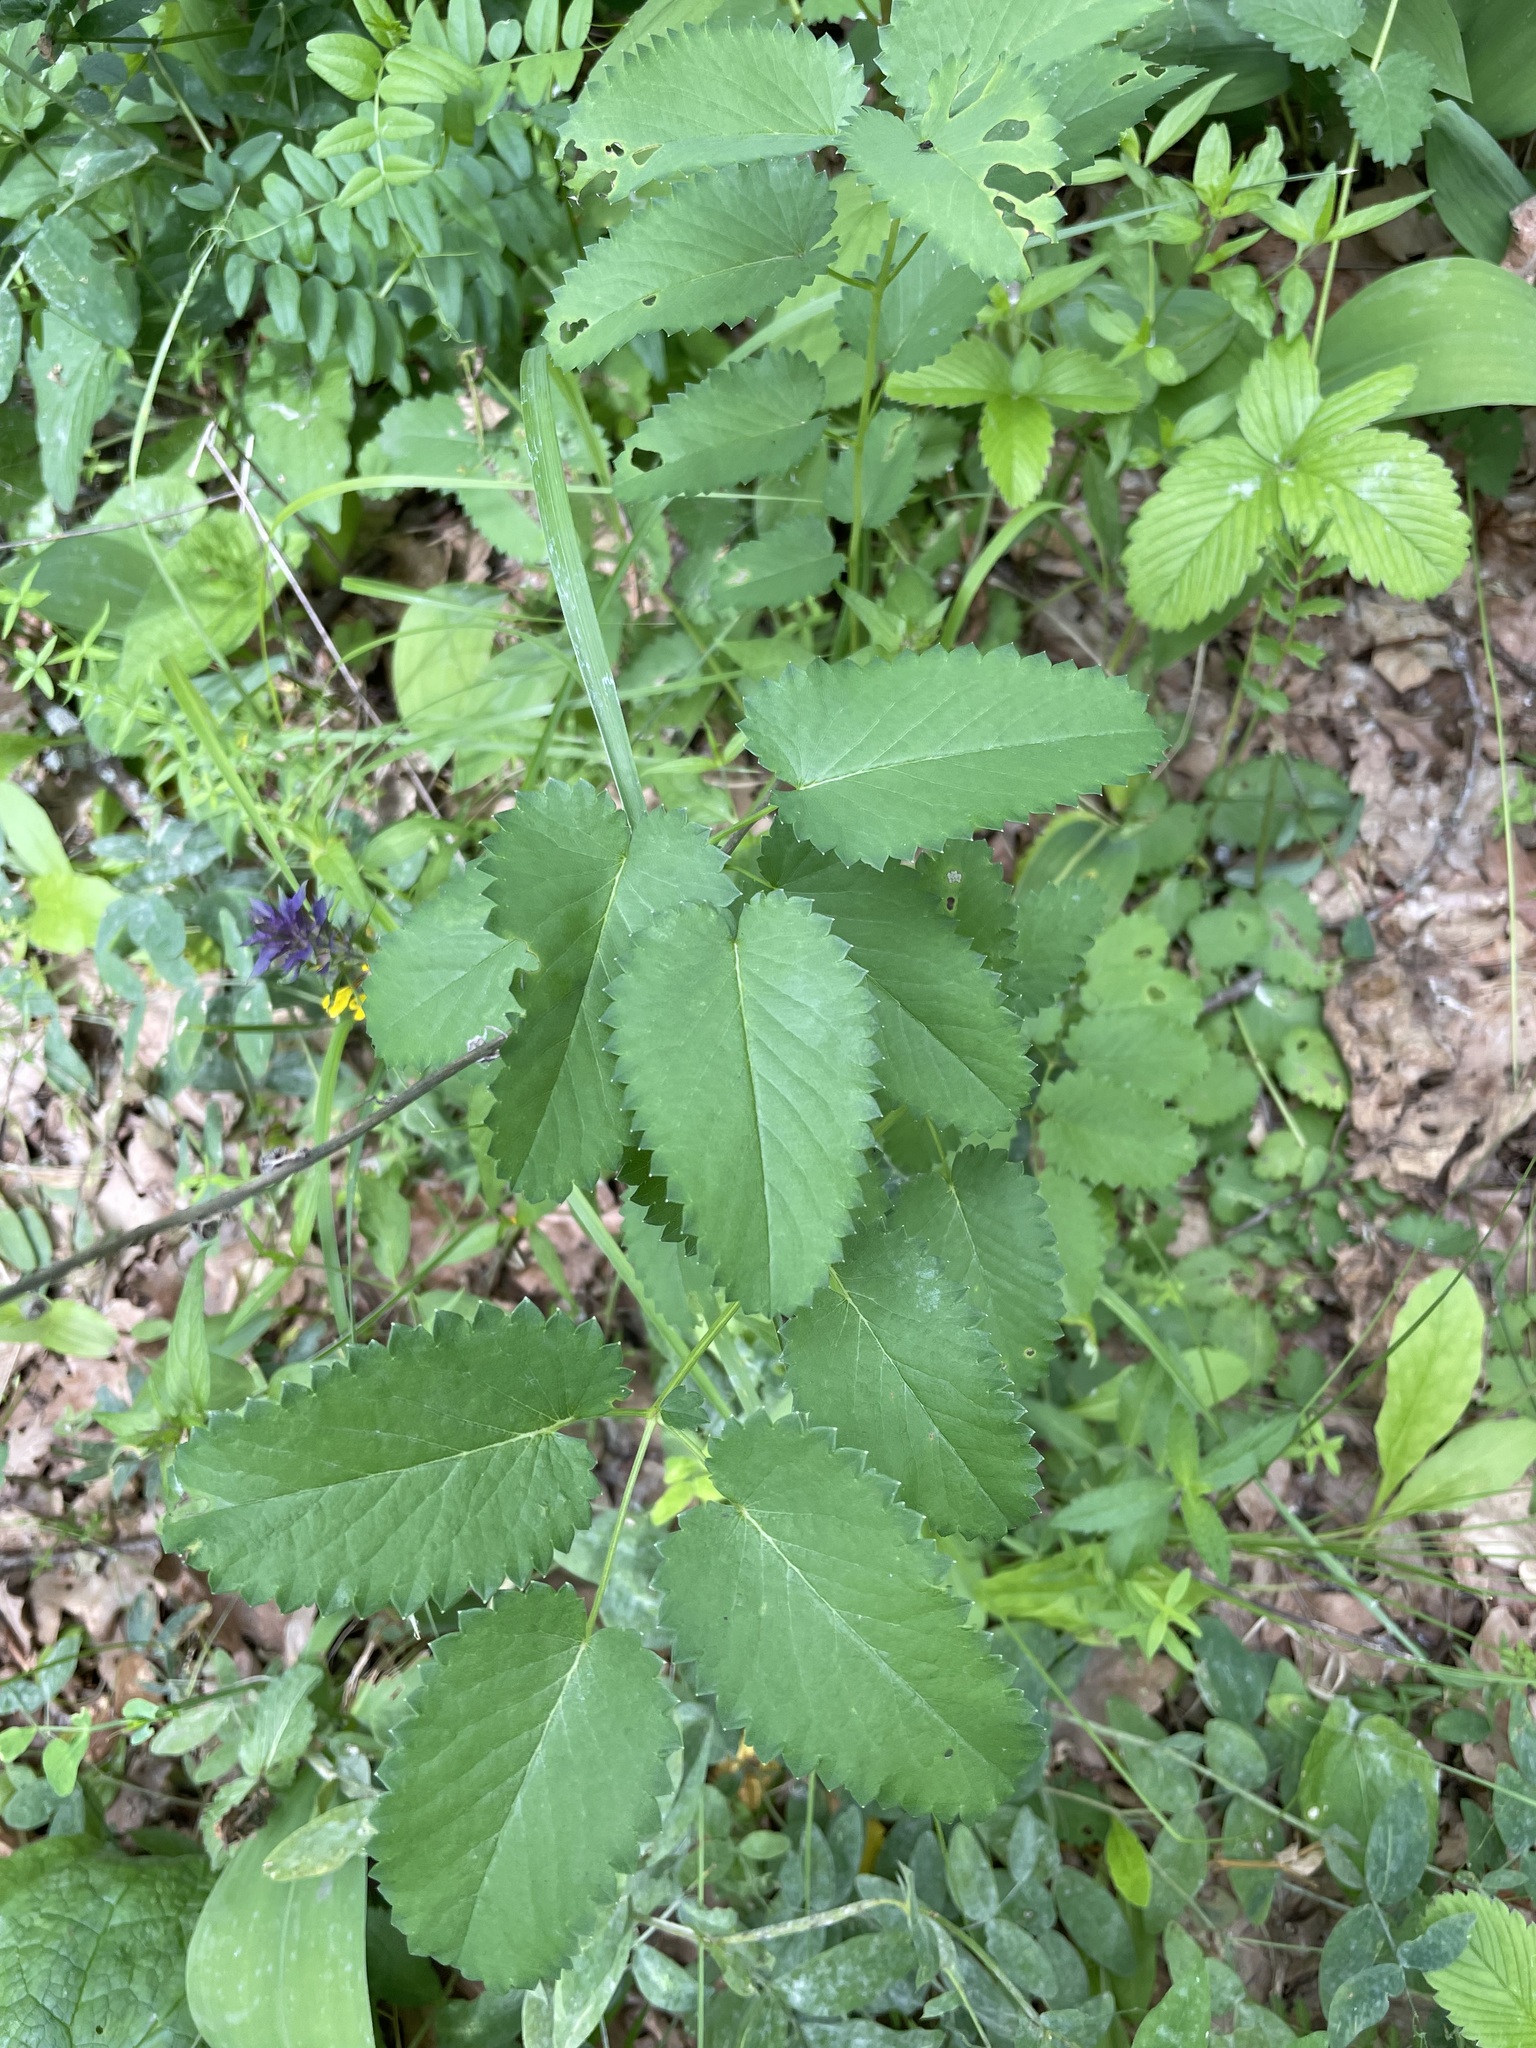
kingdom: Plantae
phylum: Tracheophyta
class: Magnoliopsida
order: Rosales
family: Rosaceae
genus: Sanguisorba
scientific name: Sanguisorba officinalis
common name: Great burnet
